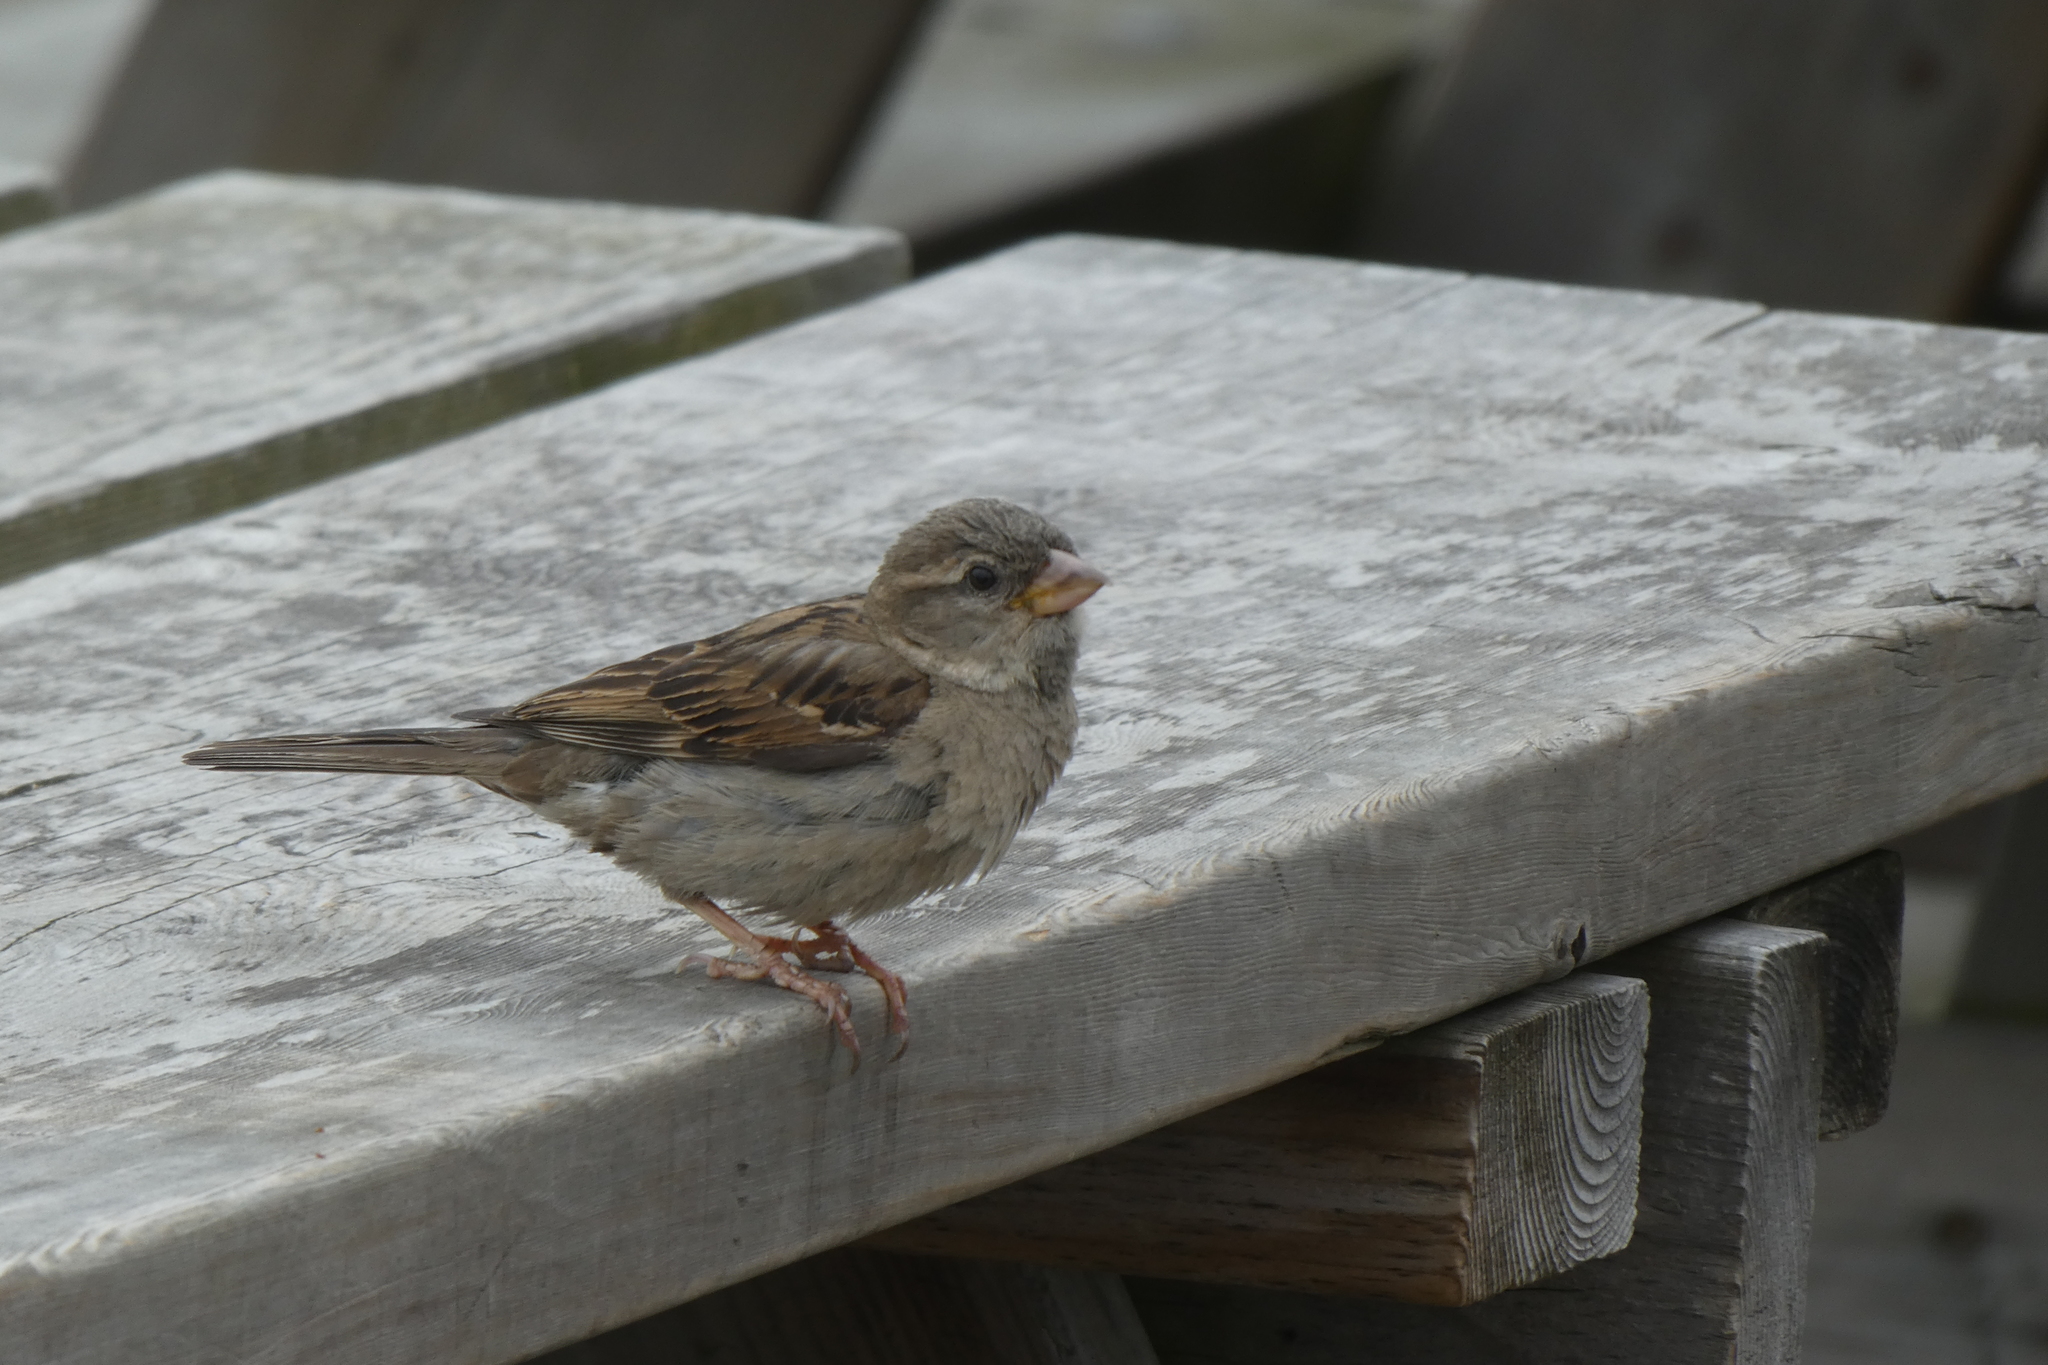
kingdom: Animalia
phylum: Chordata
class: Aves
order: Passeriformes
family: Passeridae
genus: Passer
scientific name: Passer domesticus
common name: House sparrow
